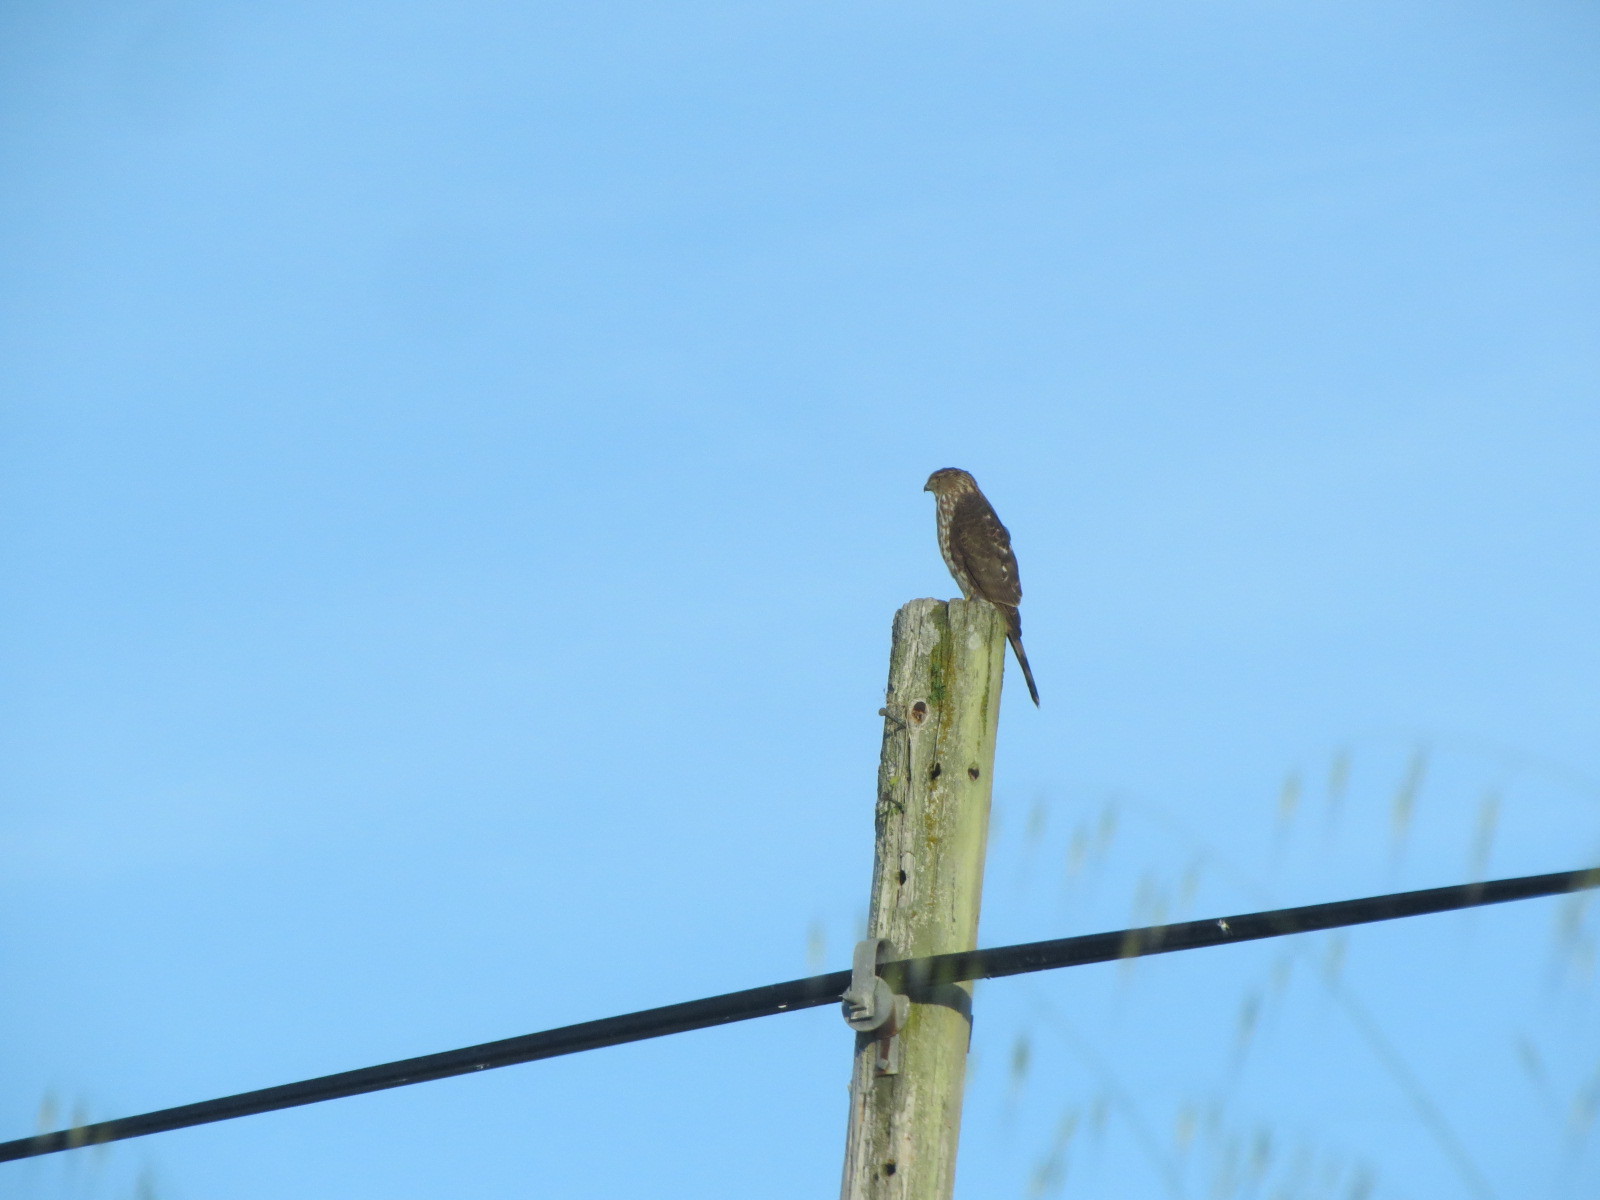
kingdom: Animalia
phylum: Chordata
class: Aves
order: Accipitriformes
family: Accipitridae
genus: Accipiter
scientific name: Accipiter cooperii
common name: Cooper's hawk
